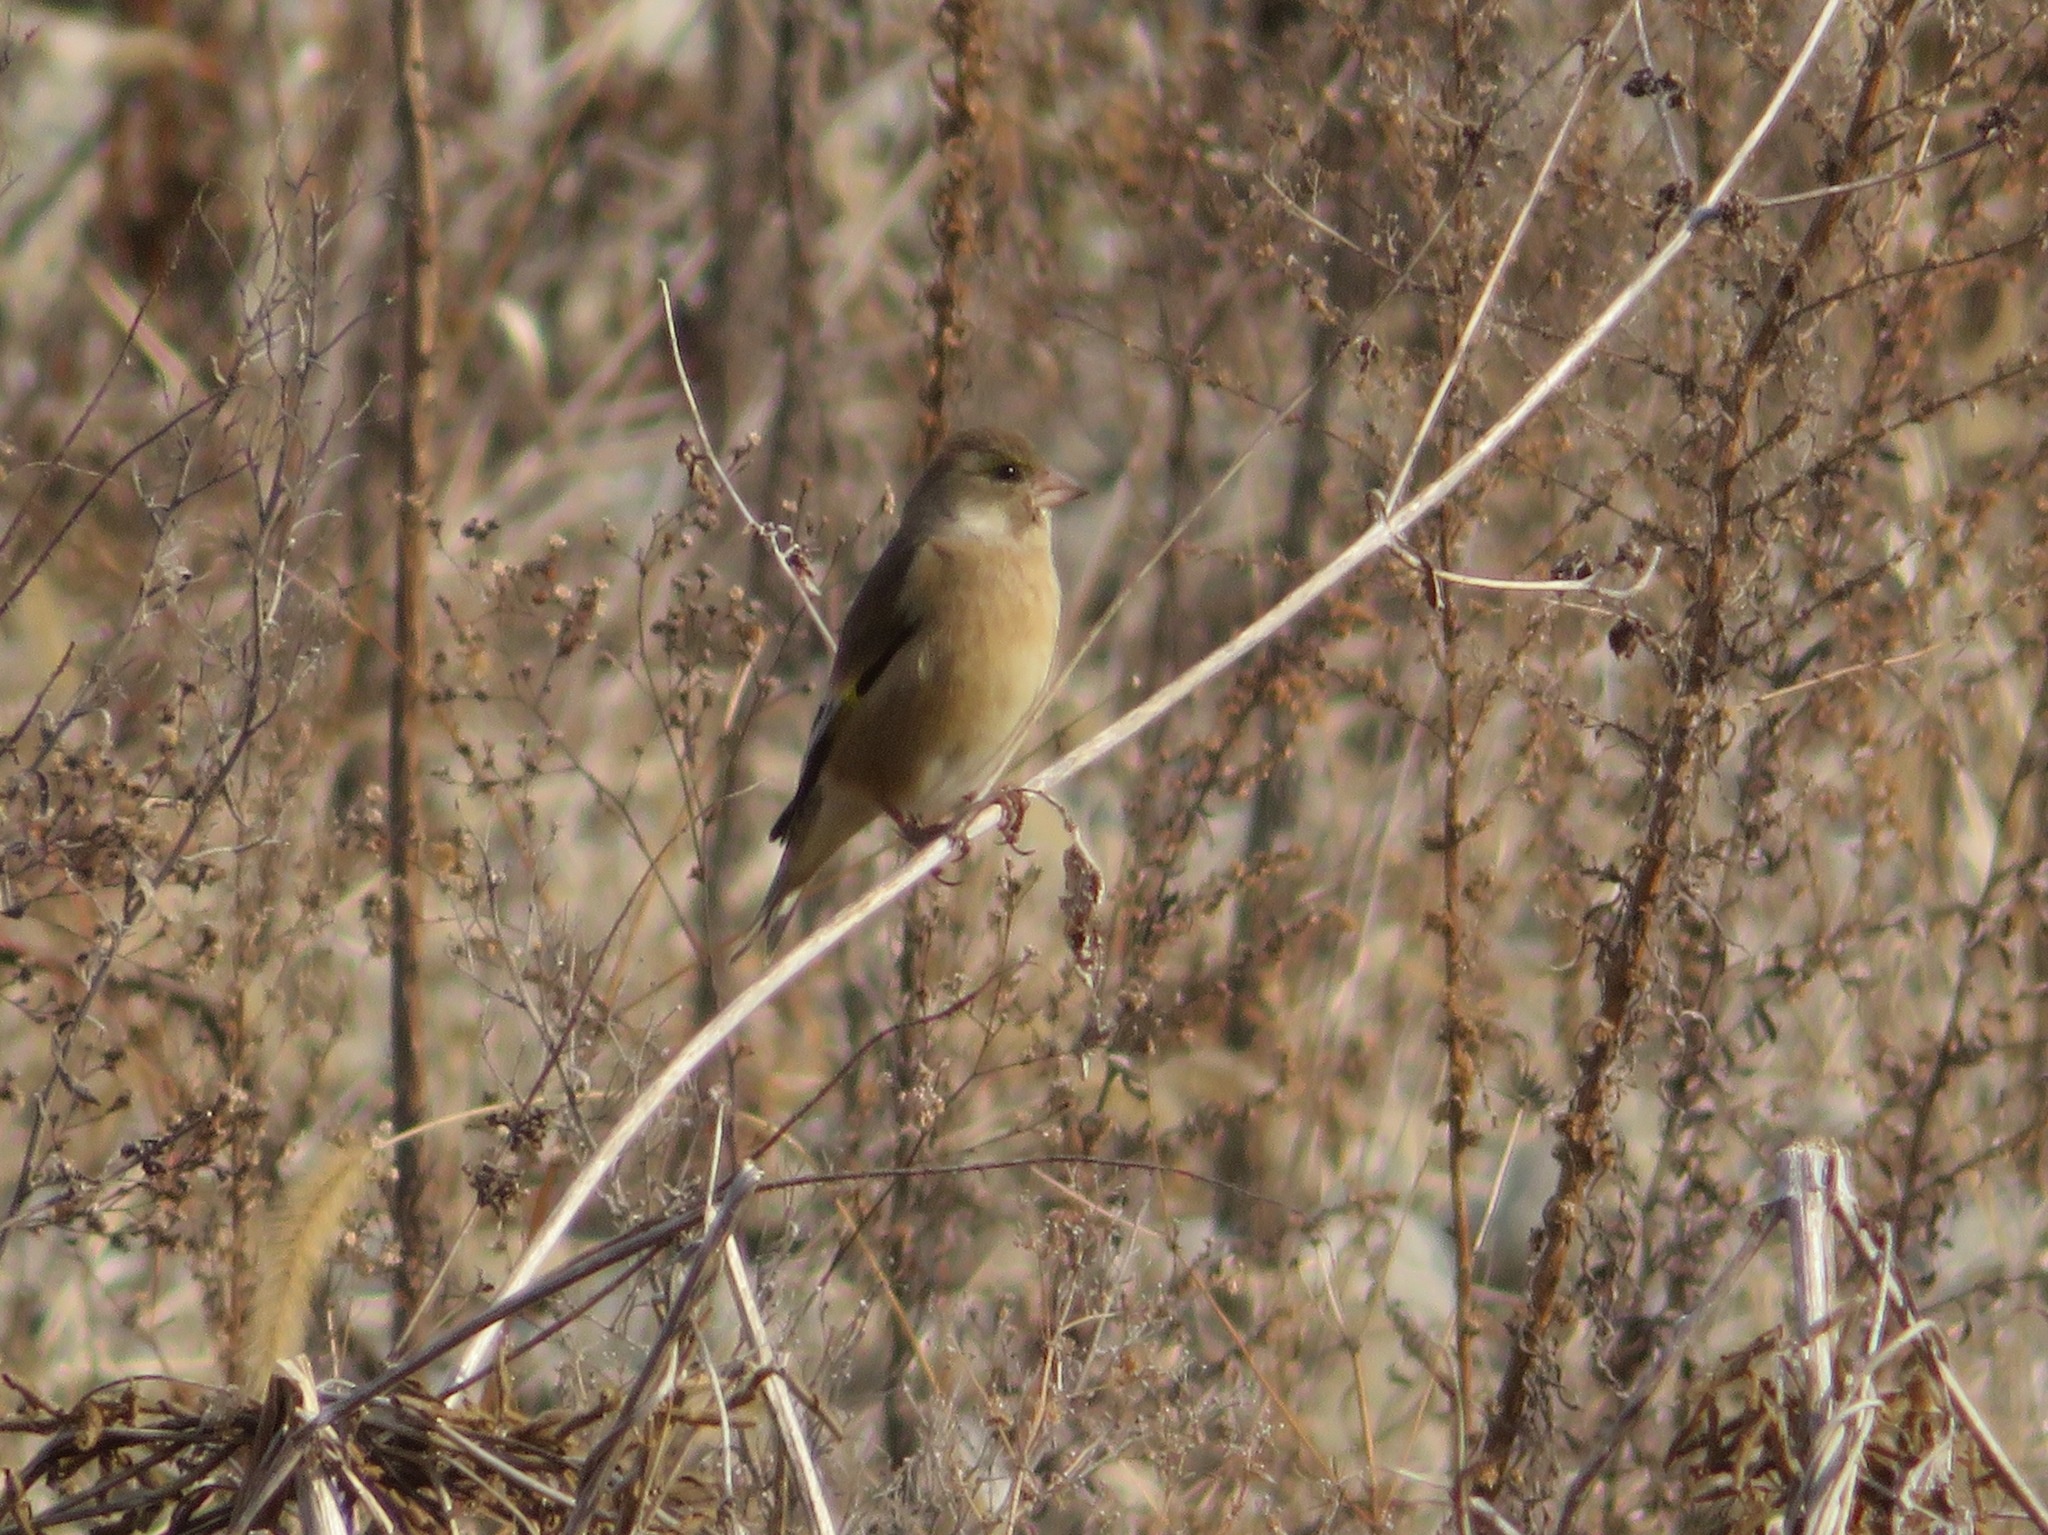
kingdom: Plantae
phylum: Tracheophyta
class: Liliopsida
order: Poales
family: Poaceae
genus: Chloris
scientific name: Chloris sinica
